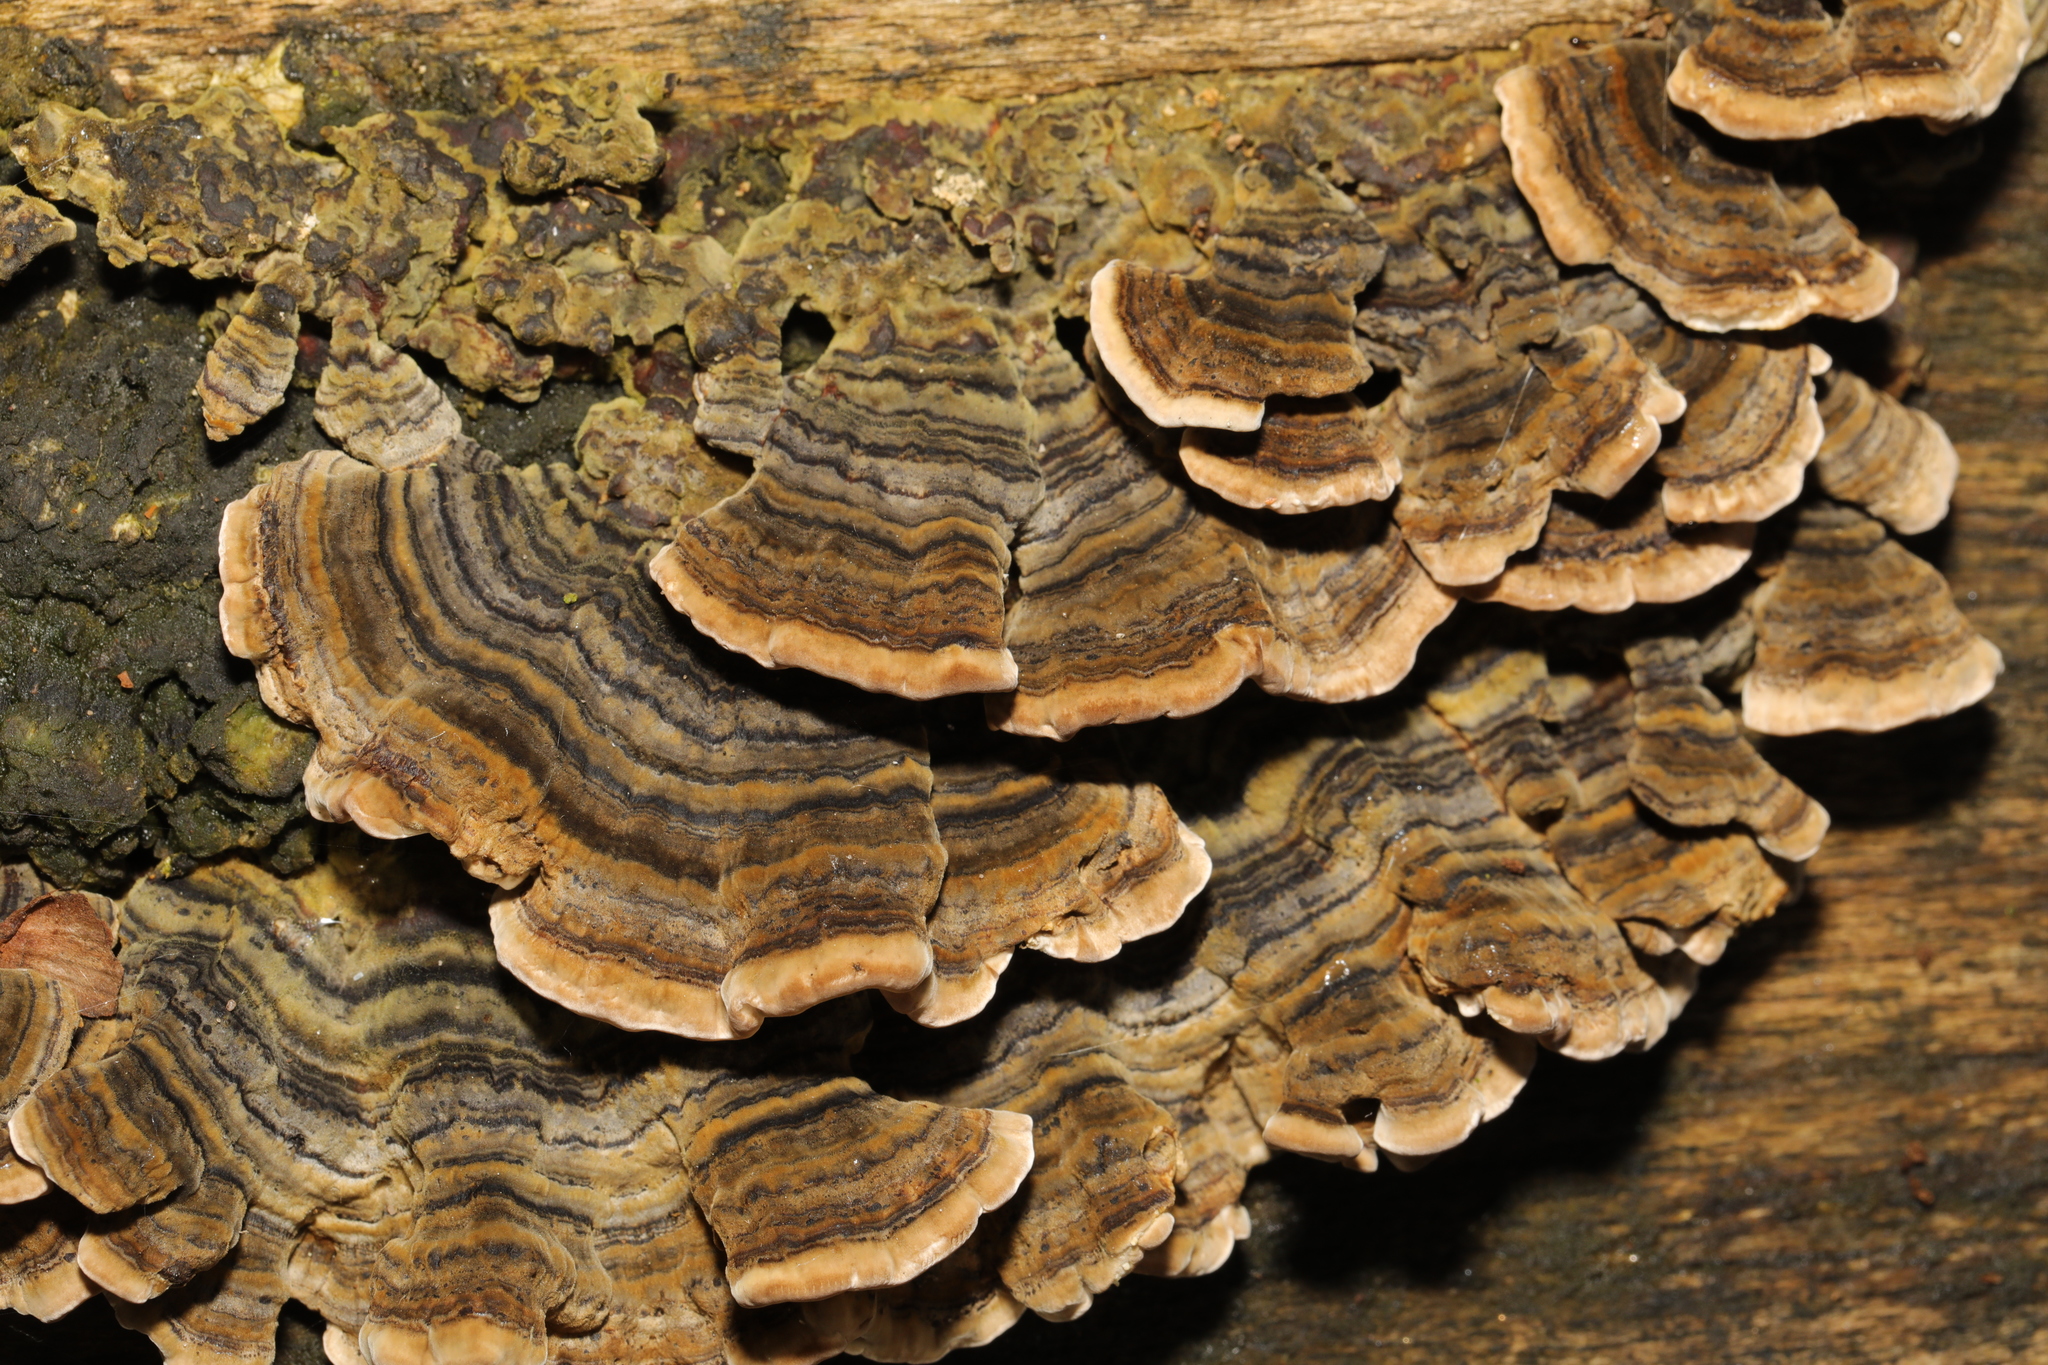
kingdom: Fungi
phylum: Basidiomycota
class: Agaricomycetes
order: Polyporales
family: Polyporaceae
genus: Trametes
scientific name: Trametes versicolor
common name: Turkeytail
